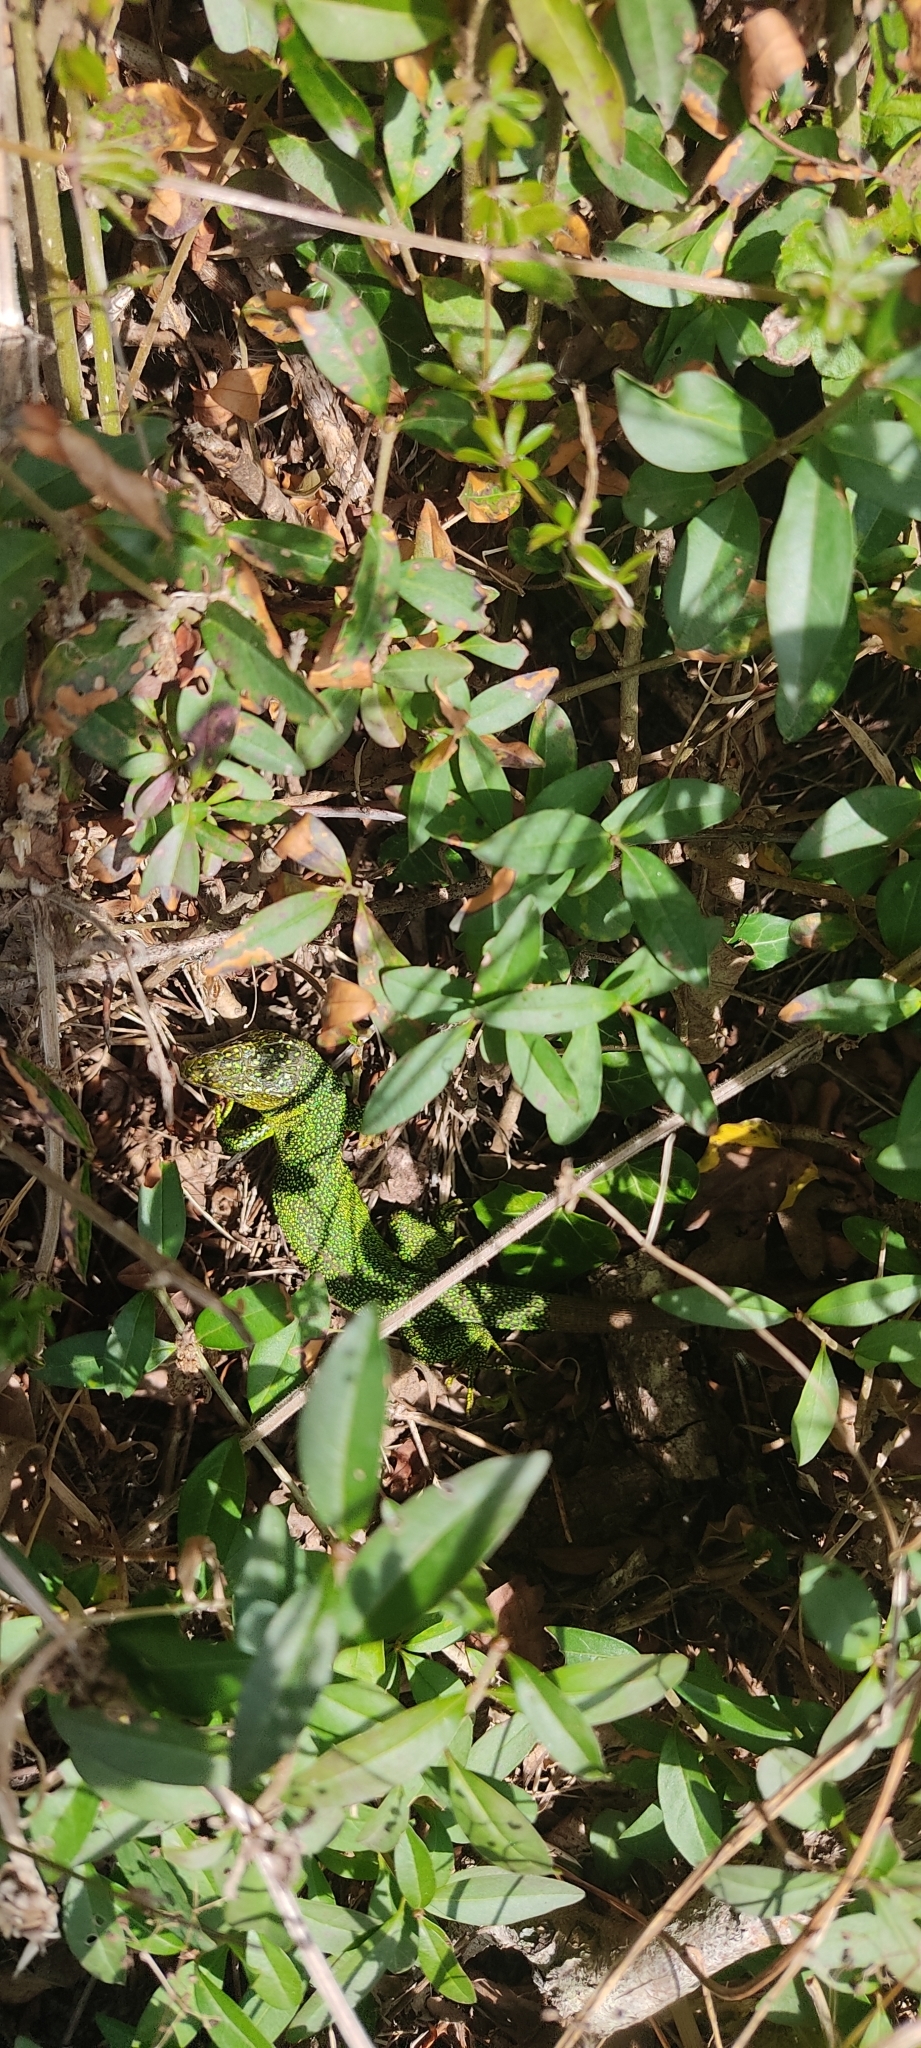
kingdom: Animalia
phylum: Chordata
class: Squamata
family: Lacertidae
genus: Lacerta
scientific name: Lacerta bilineata
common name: Western green lizard
